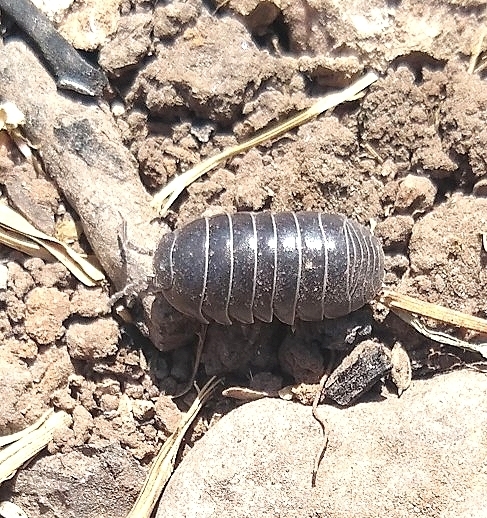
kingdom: Animalia
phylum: Arthropoda
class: Malacostraca
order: Isopoda
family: Armadillidiidae
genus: Armadillidium
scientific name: Armadillidium vulgare
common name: Common pill woodlouse
